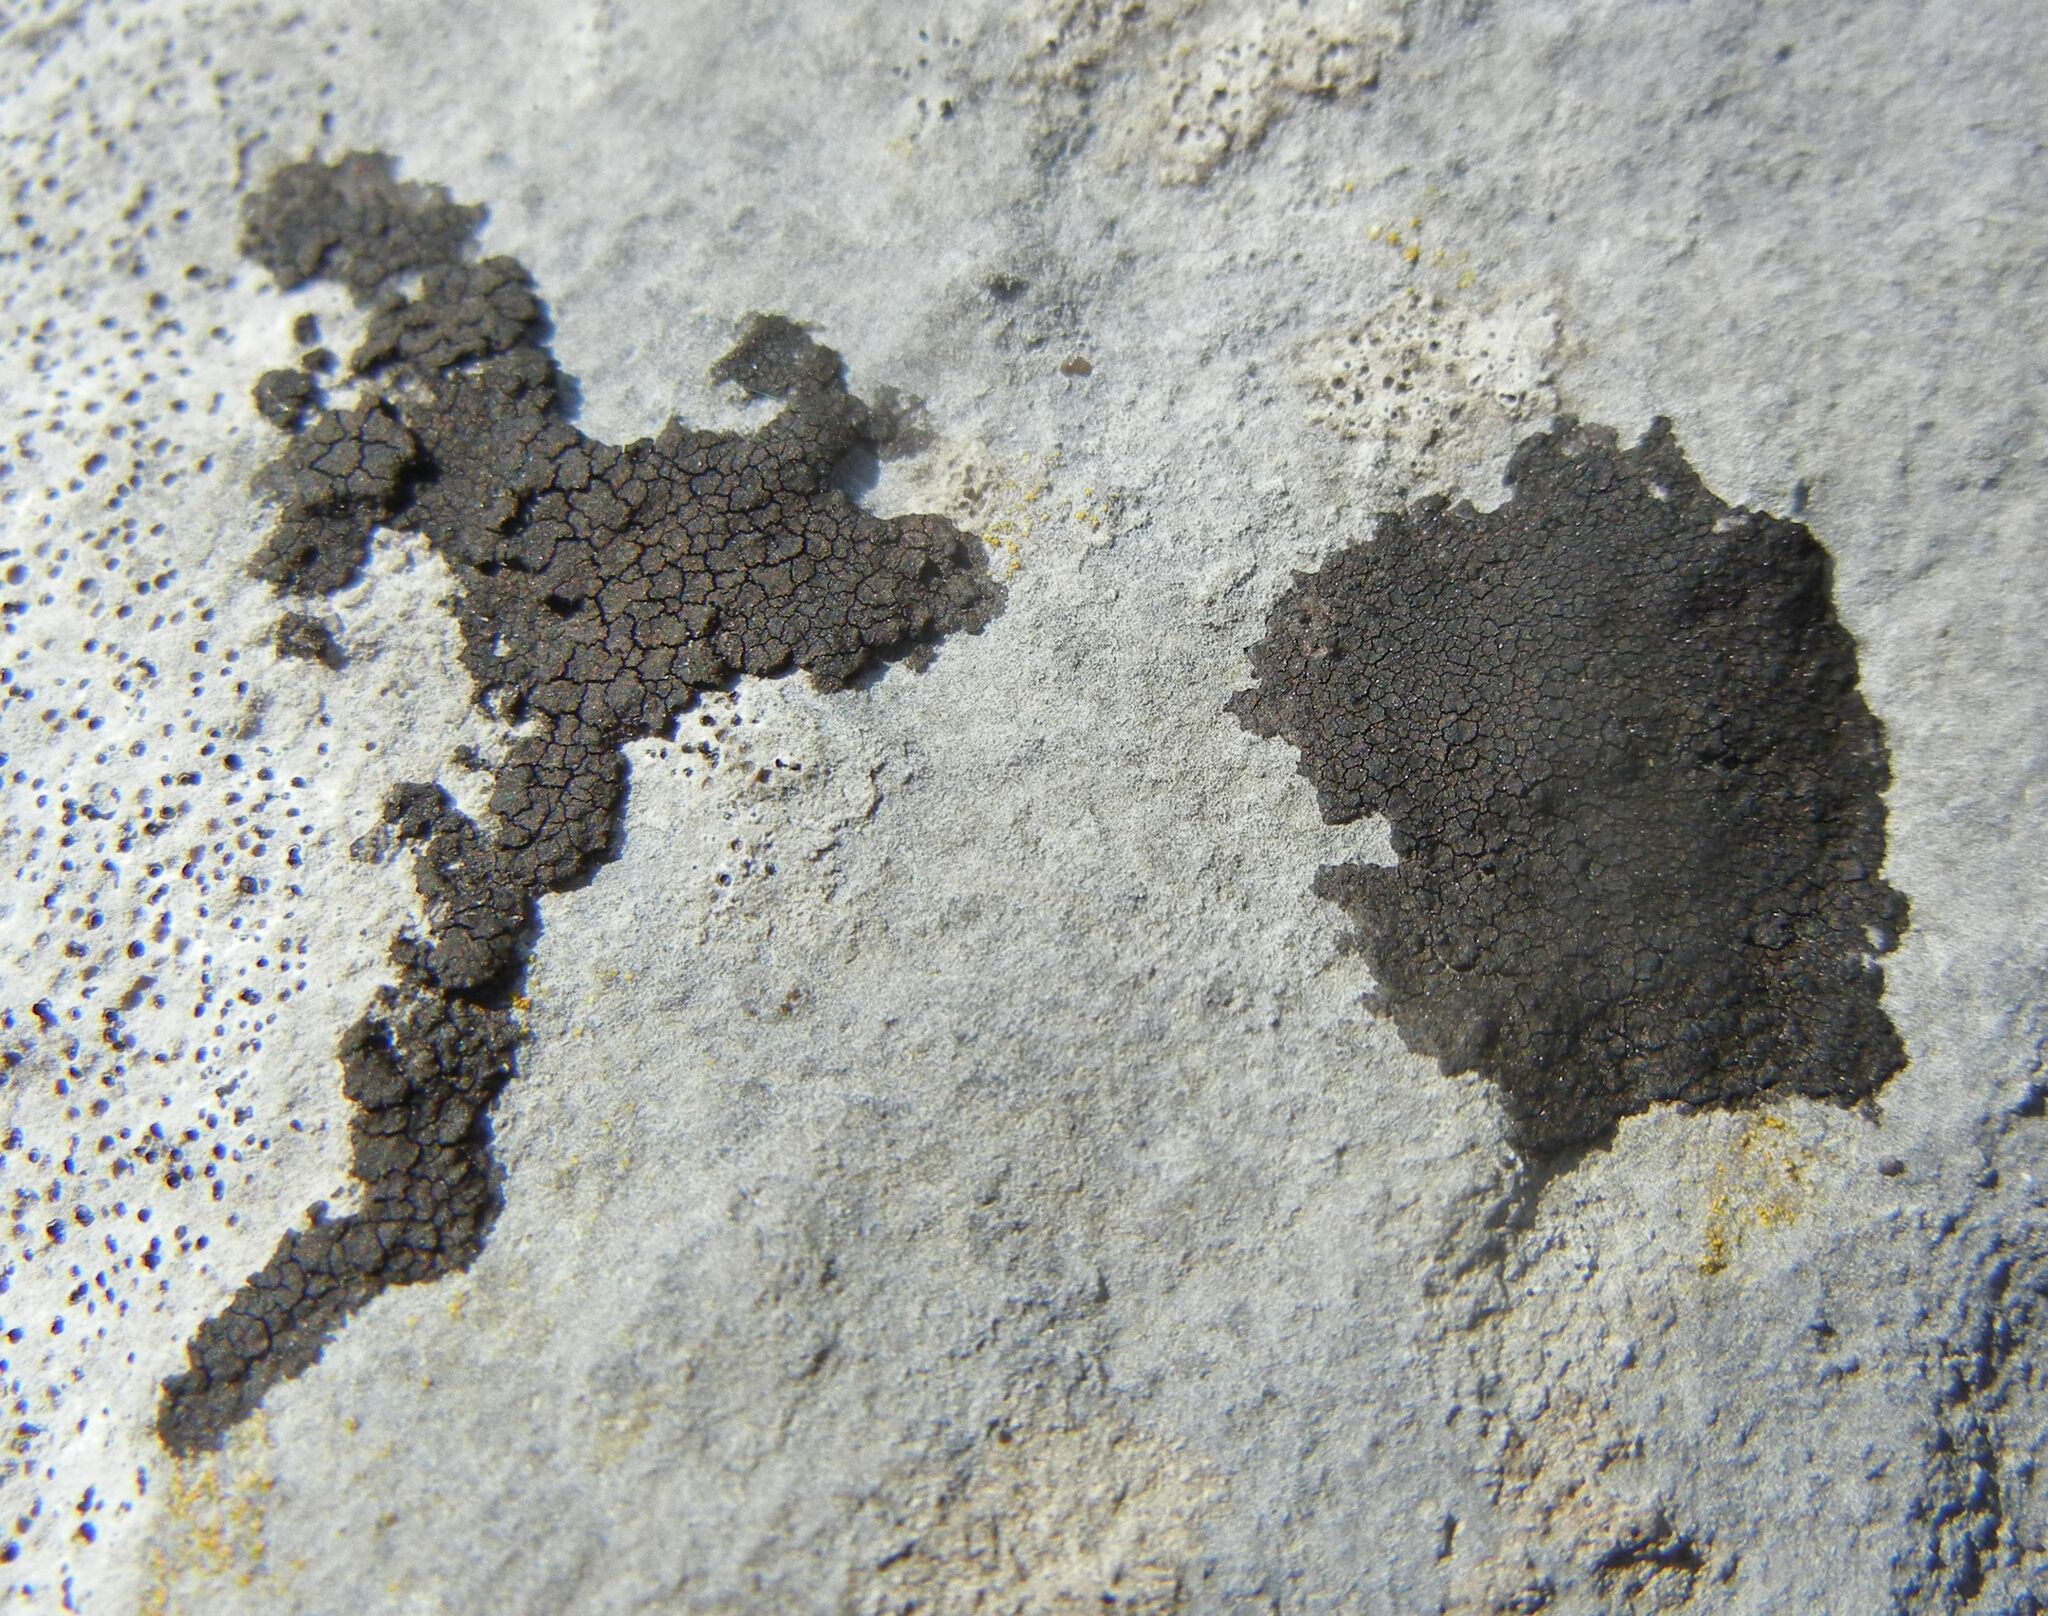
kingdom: Fungi
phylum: Ascomycota
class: Eurotiomycetes
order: Verrucariales
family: Verrucariaceae
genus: Verrucaria
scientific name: Verrucaria nigrescens
